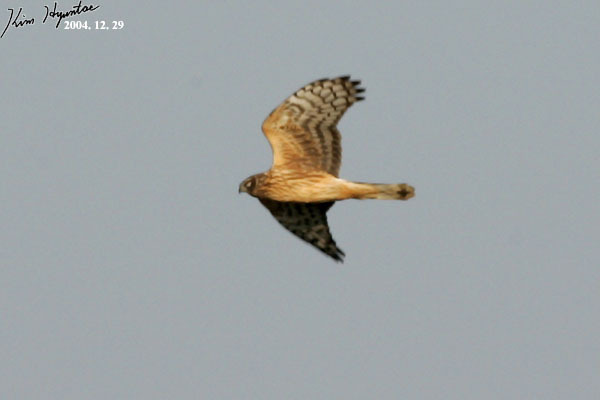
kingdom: Animalia
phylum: Chordata
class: Aves
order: Accipitriformes
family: Accipitridae
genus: Circus
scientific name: Circus cyaneus
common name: Hen harrier
